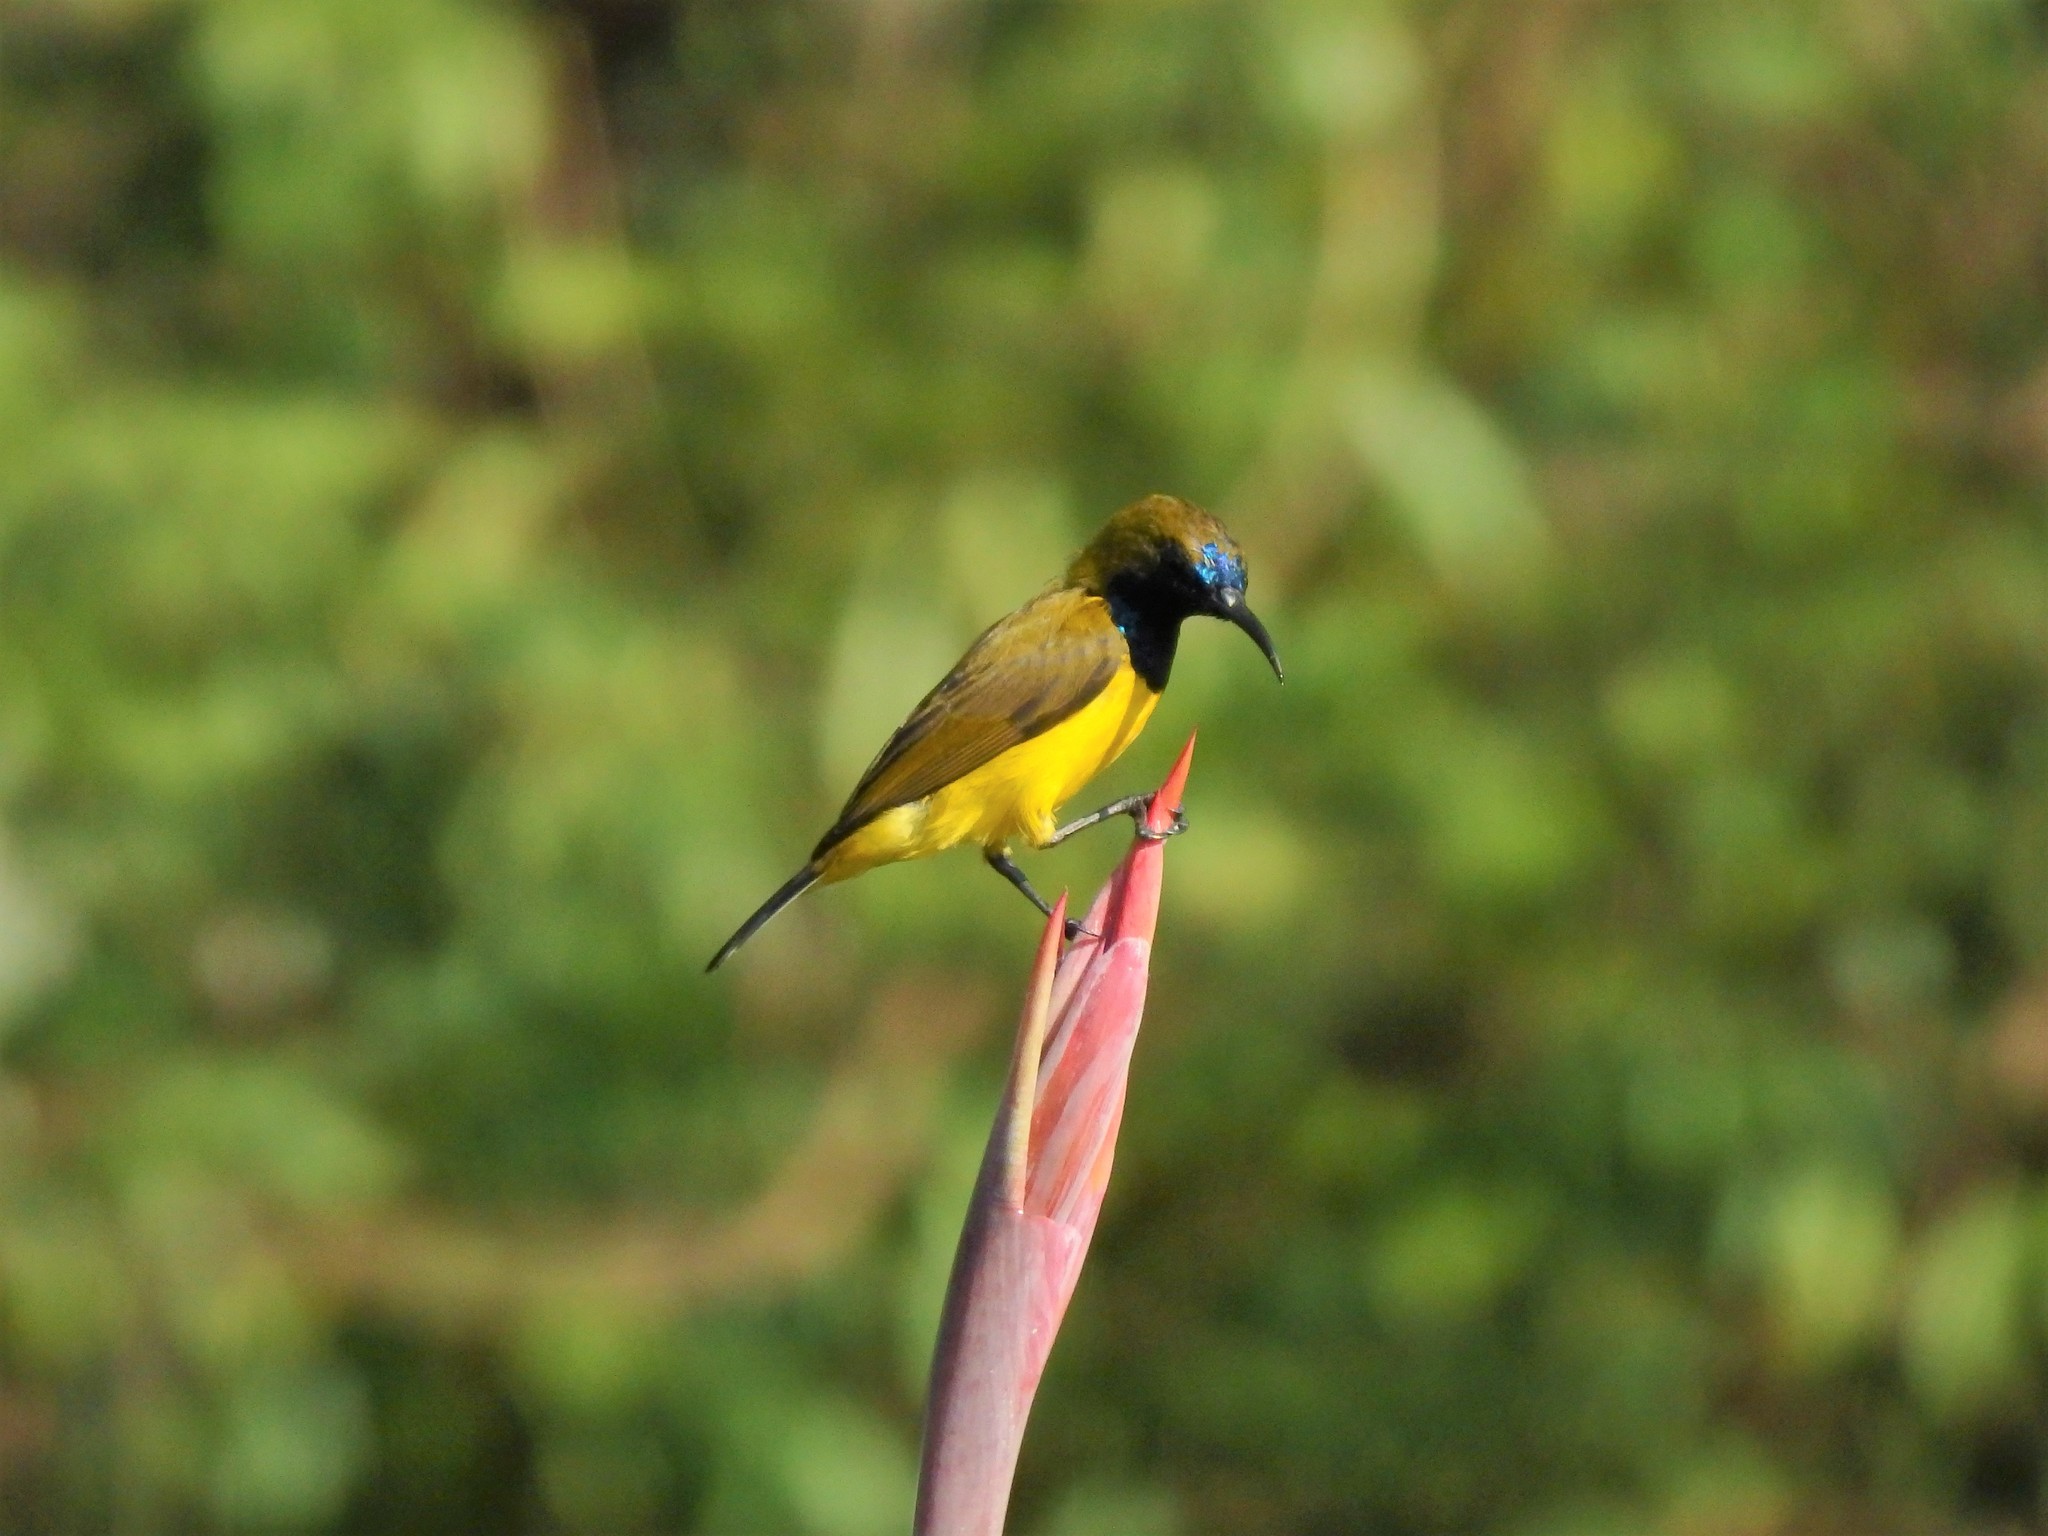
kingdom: Animalia
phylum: Chordata
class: Aves
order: Passeriformes
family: Nectariniidae
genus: Cinnyris
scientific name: Cinnyris
